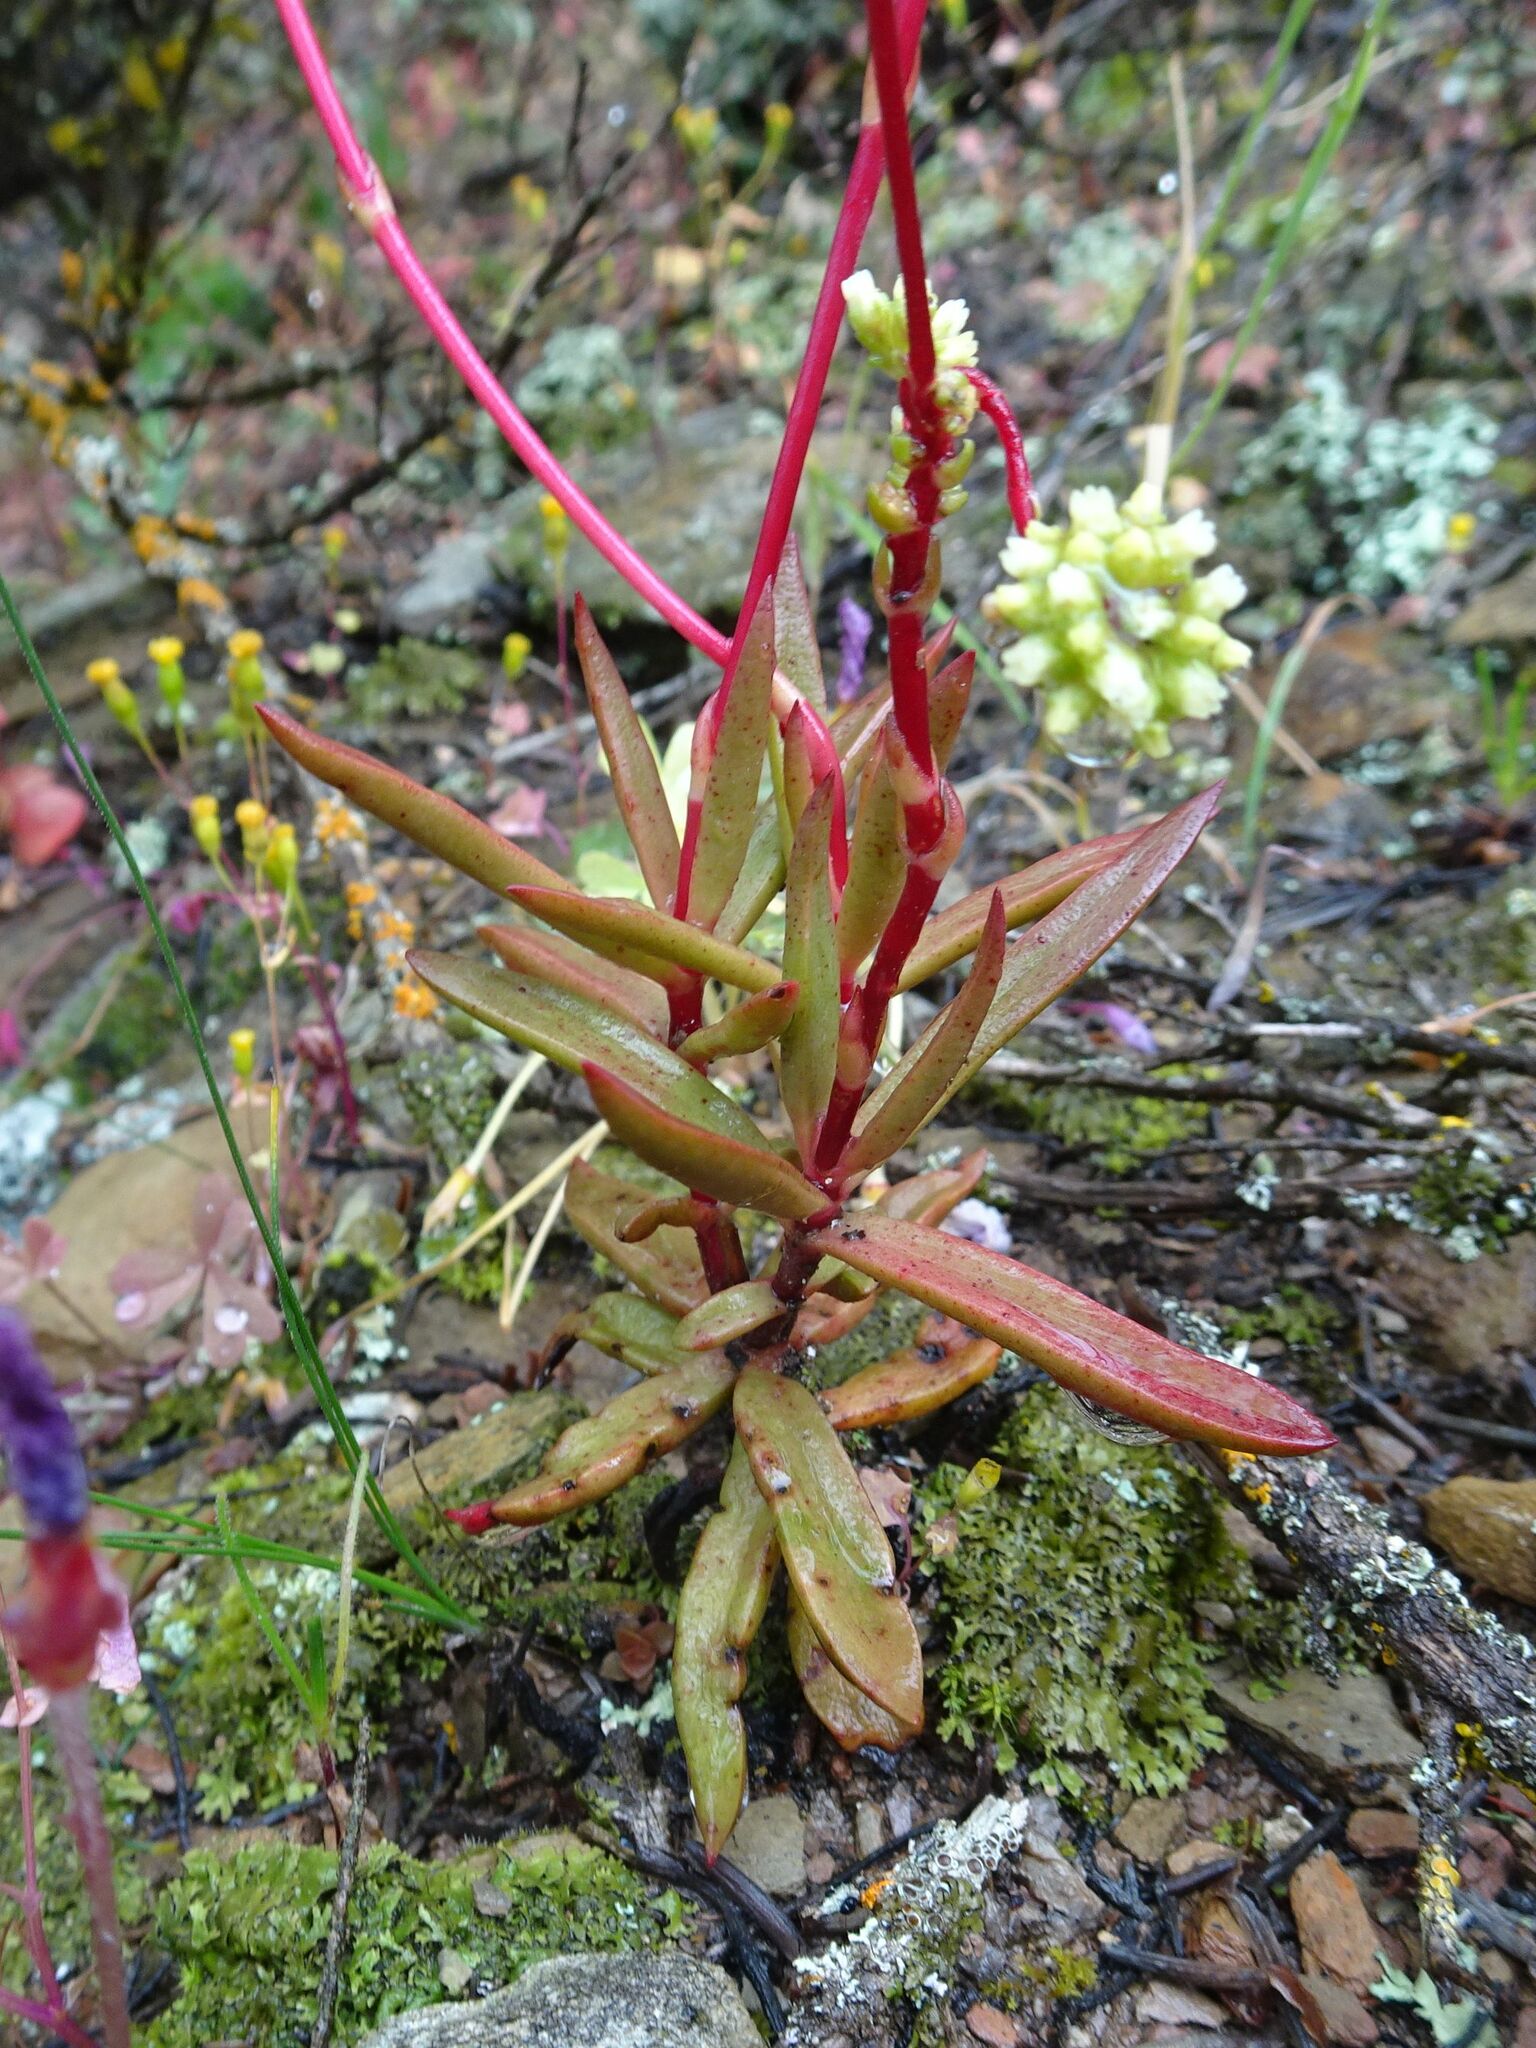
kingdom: Plantae
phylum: Tracheophyta
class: Magnoliopsida
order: Saxifragales
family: Crassulaceae
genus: Crassula
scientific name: Crassula pubescens
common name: Jersey pigmyweed
